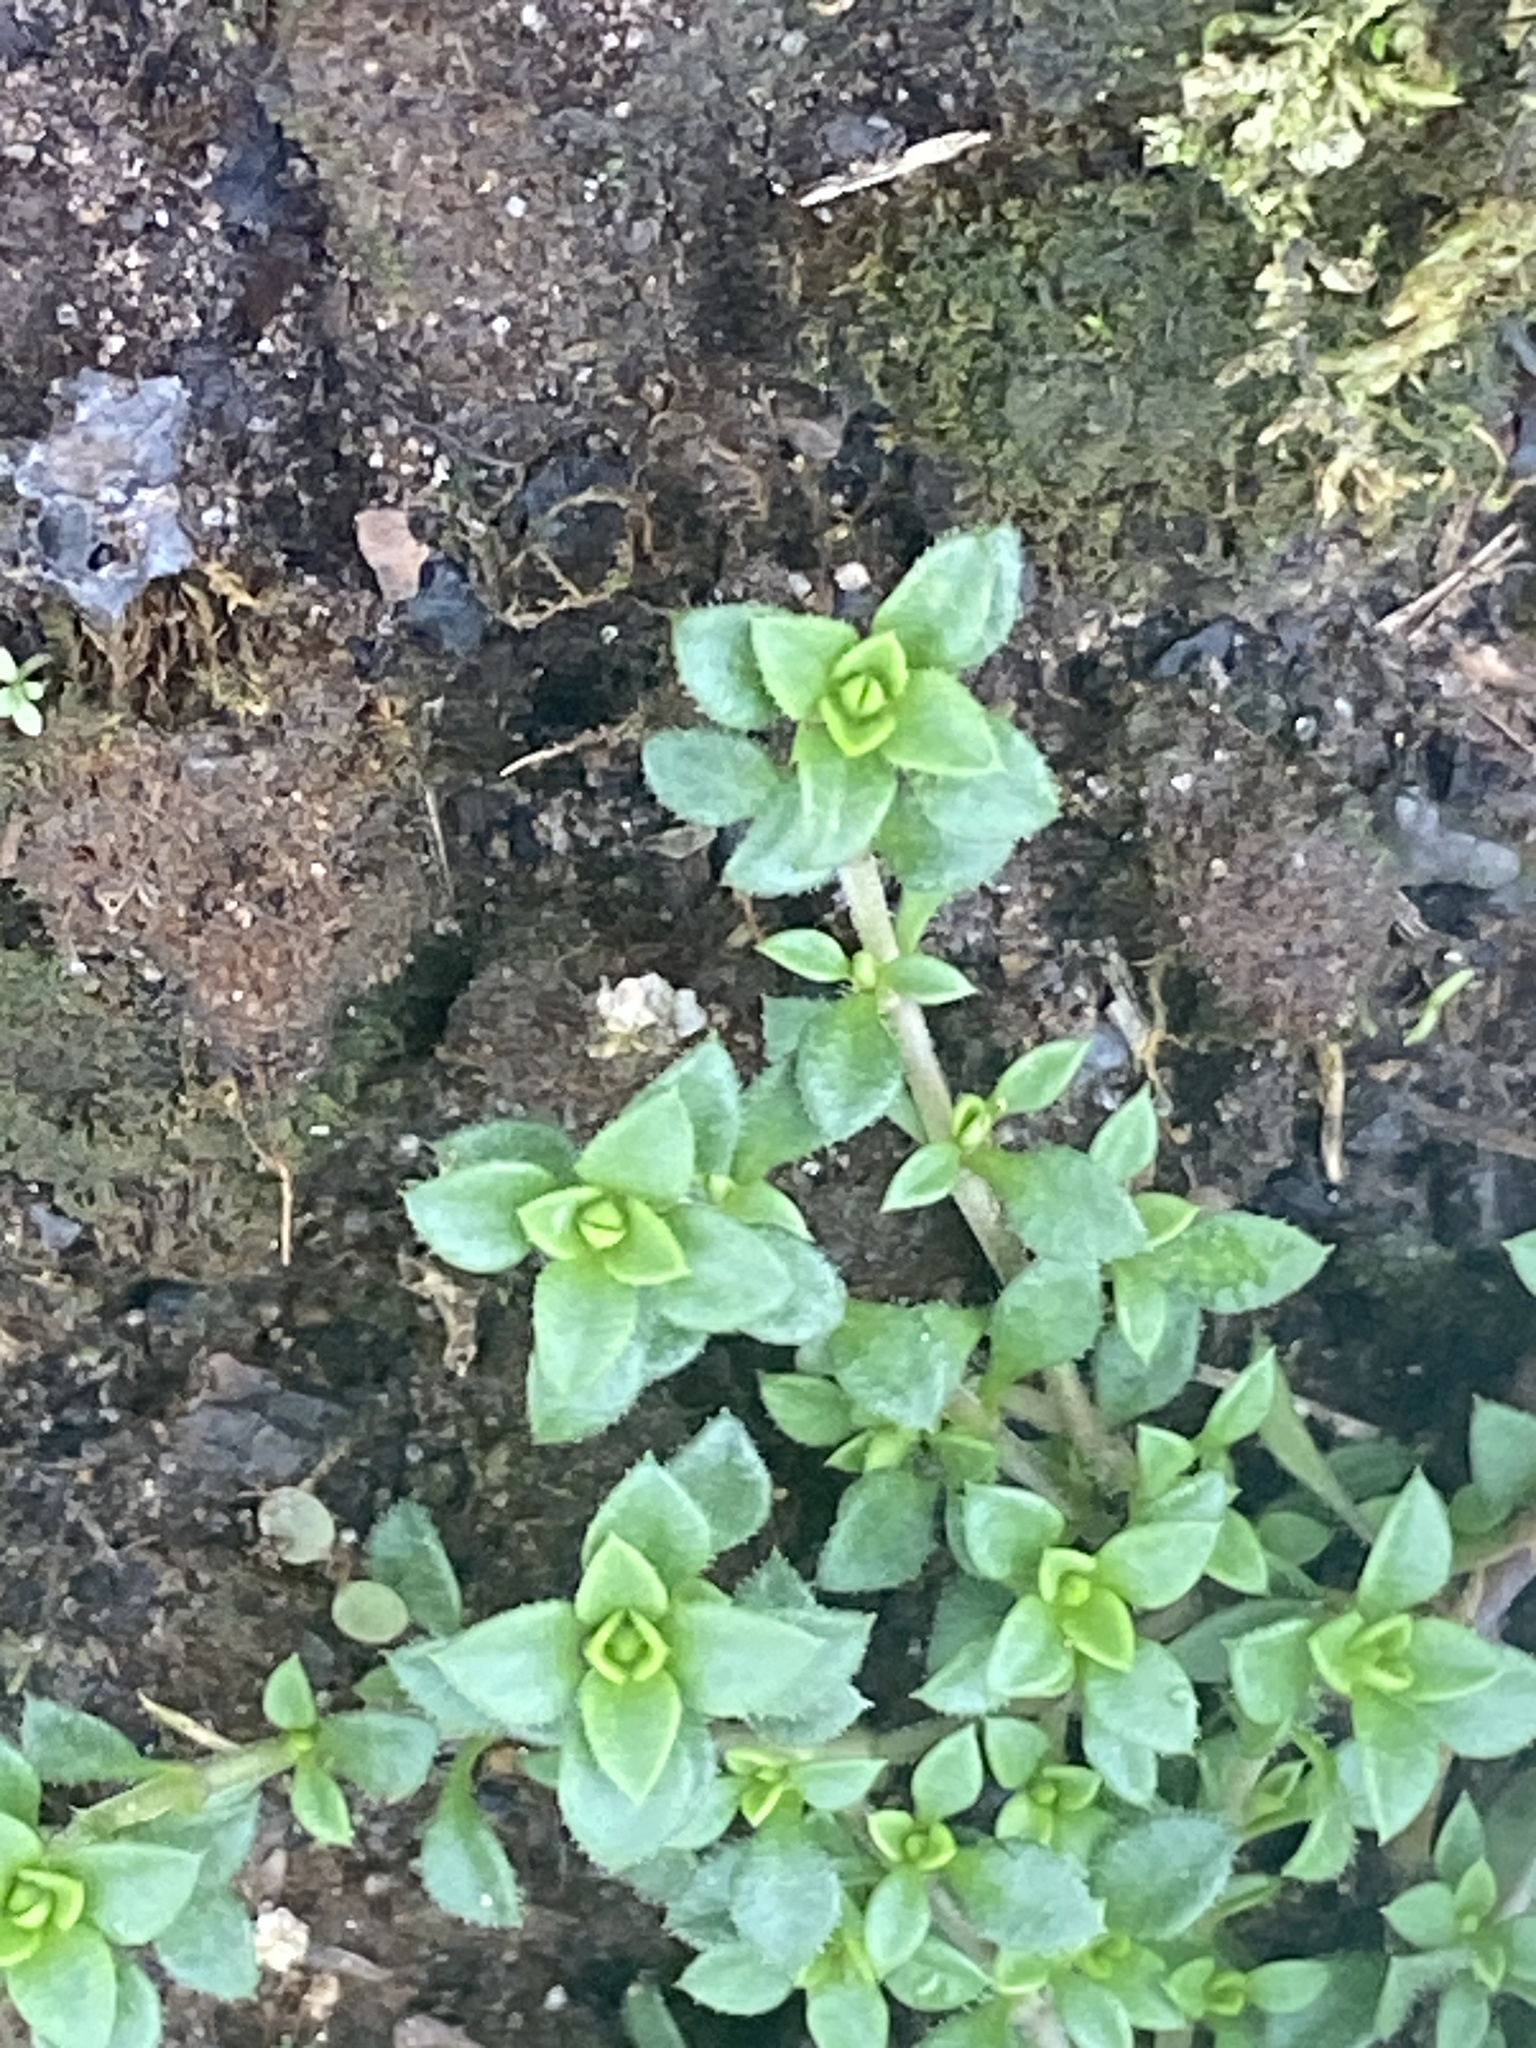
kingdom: Plantae
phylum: Tracheophyta
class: Magnoliopsida
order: Caryophyllales
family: Caryophyllaceae
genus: Stellaria
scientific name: Stellaria media
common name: Common chickweed
